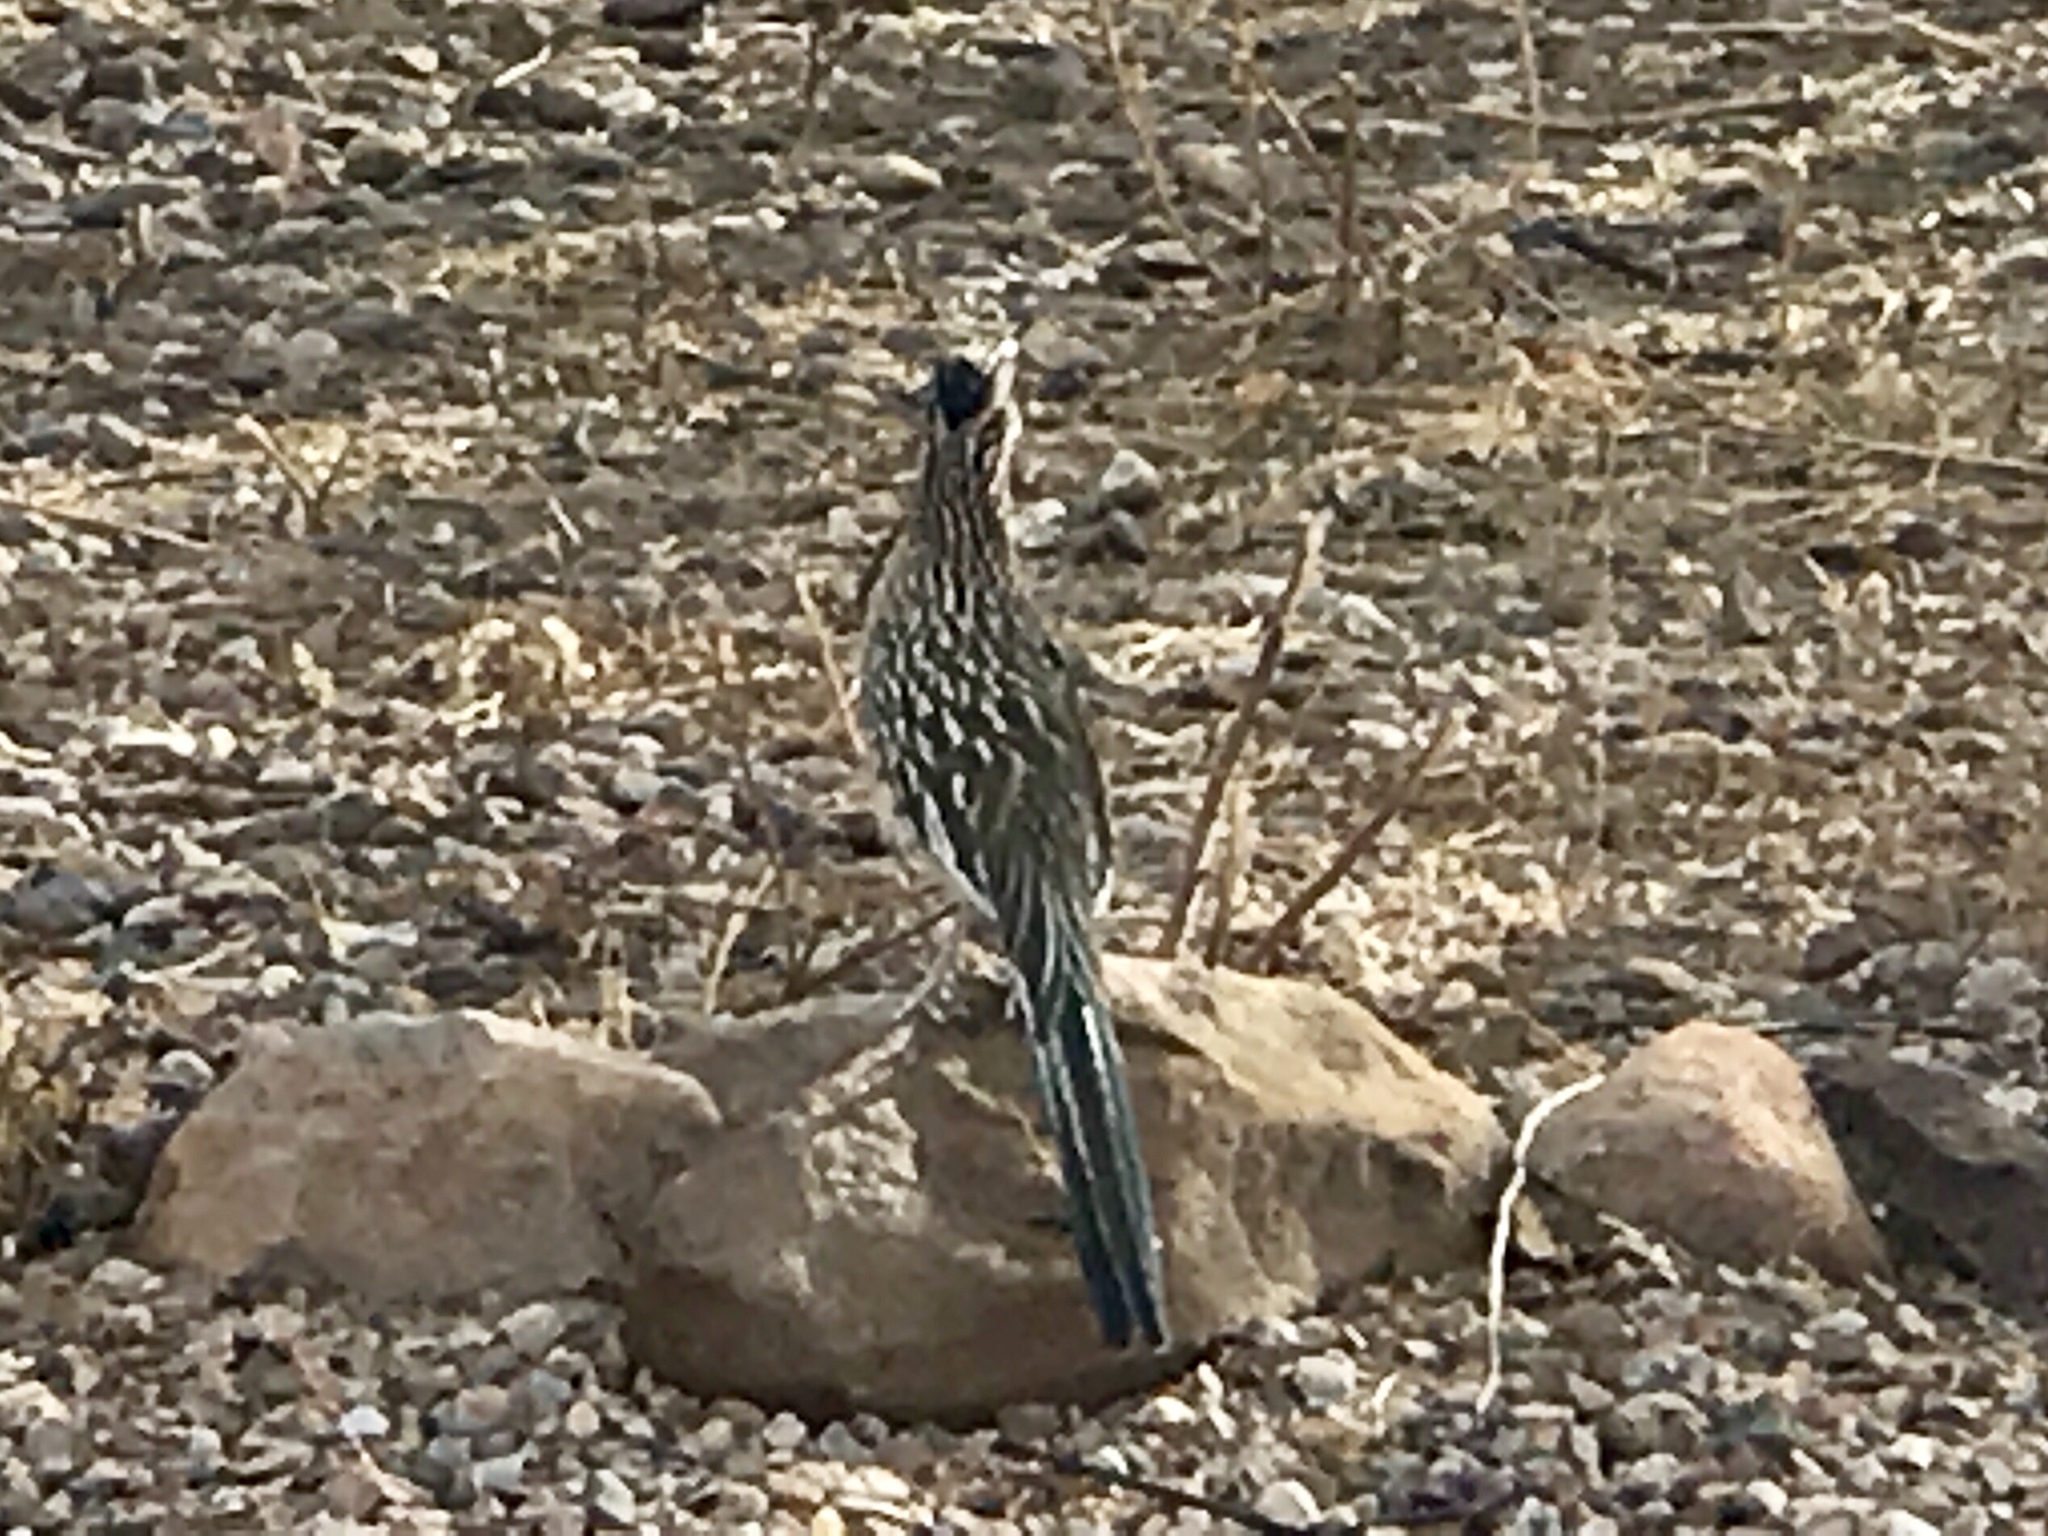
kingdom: Animalia
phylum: Chordata
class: Aves
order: Cuculiformes
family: Cuculidae
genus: Geococcyx
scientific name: Geococcyx californianus
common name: Greater roadrunner
